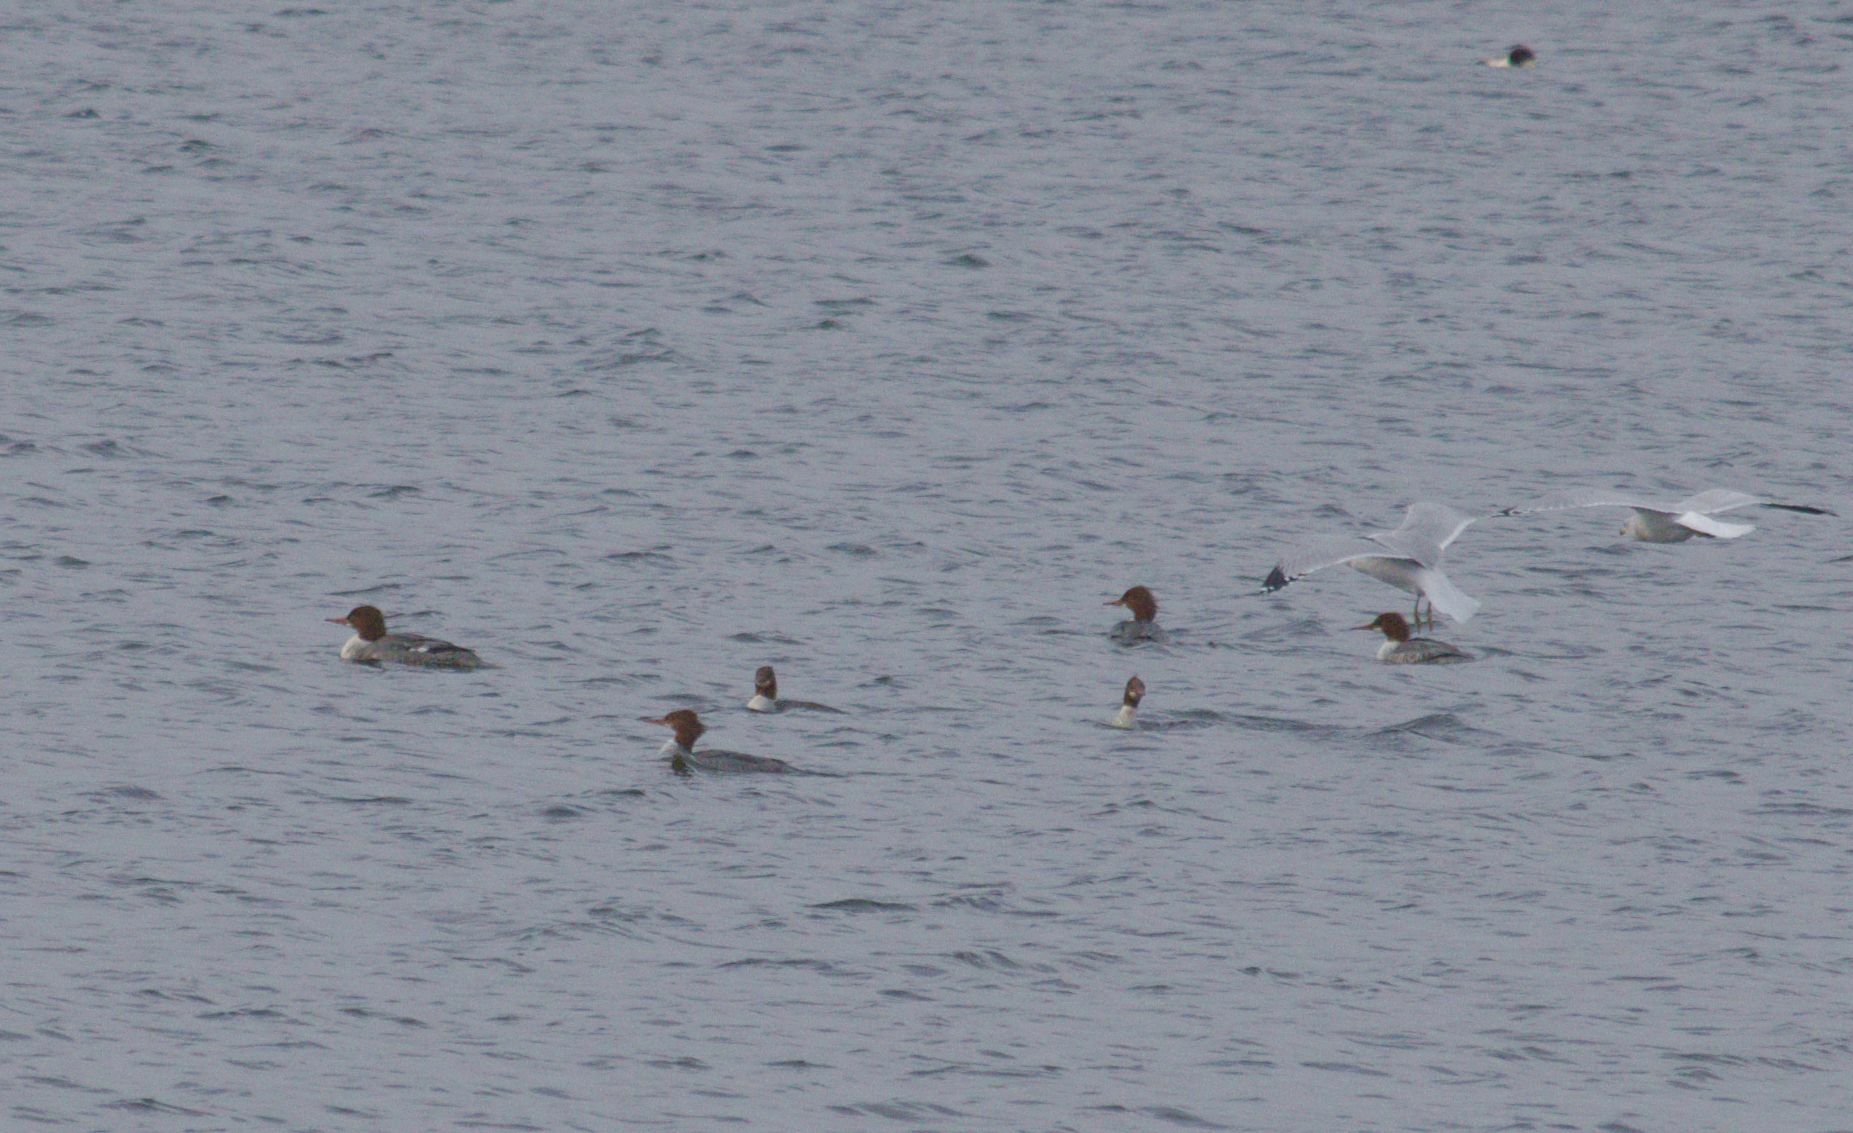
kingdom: Animalia
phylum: Chordata
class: Aves
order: Anseriformes
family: Anatidae
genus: Mergus
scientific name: Mergus merganser
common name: Common merganser
